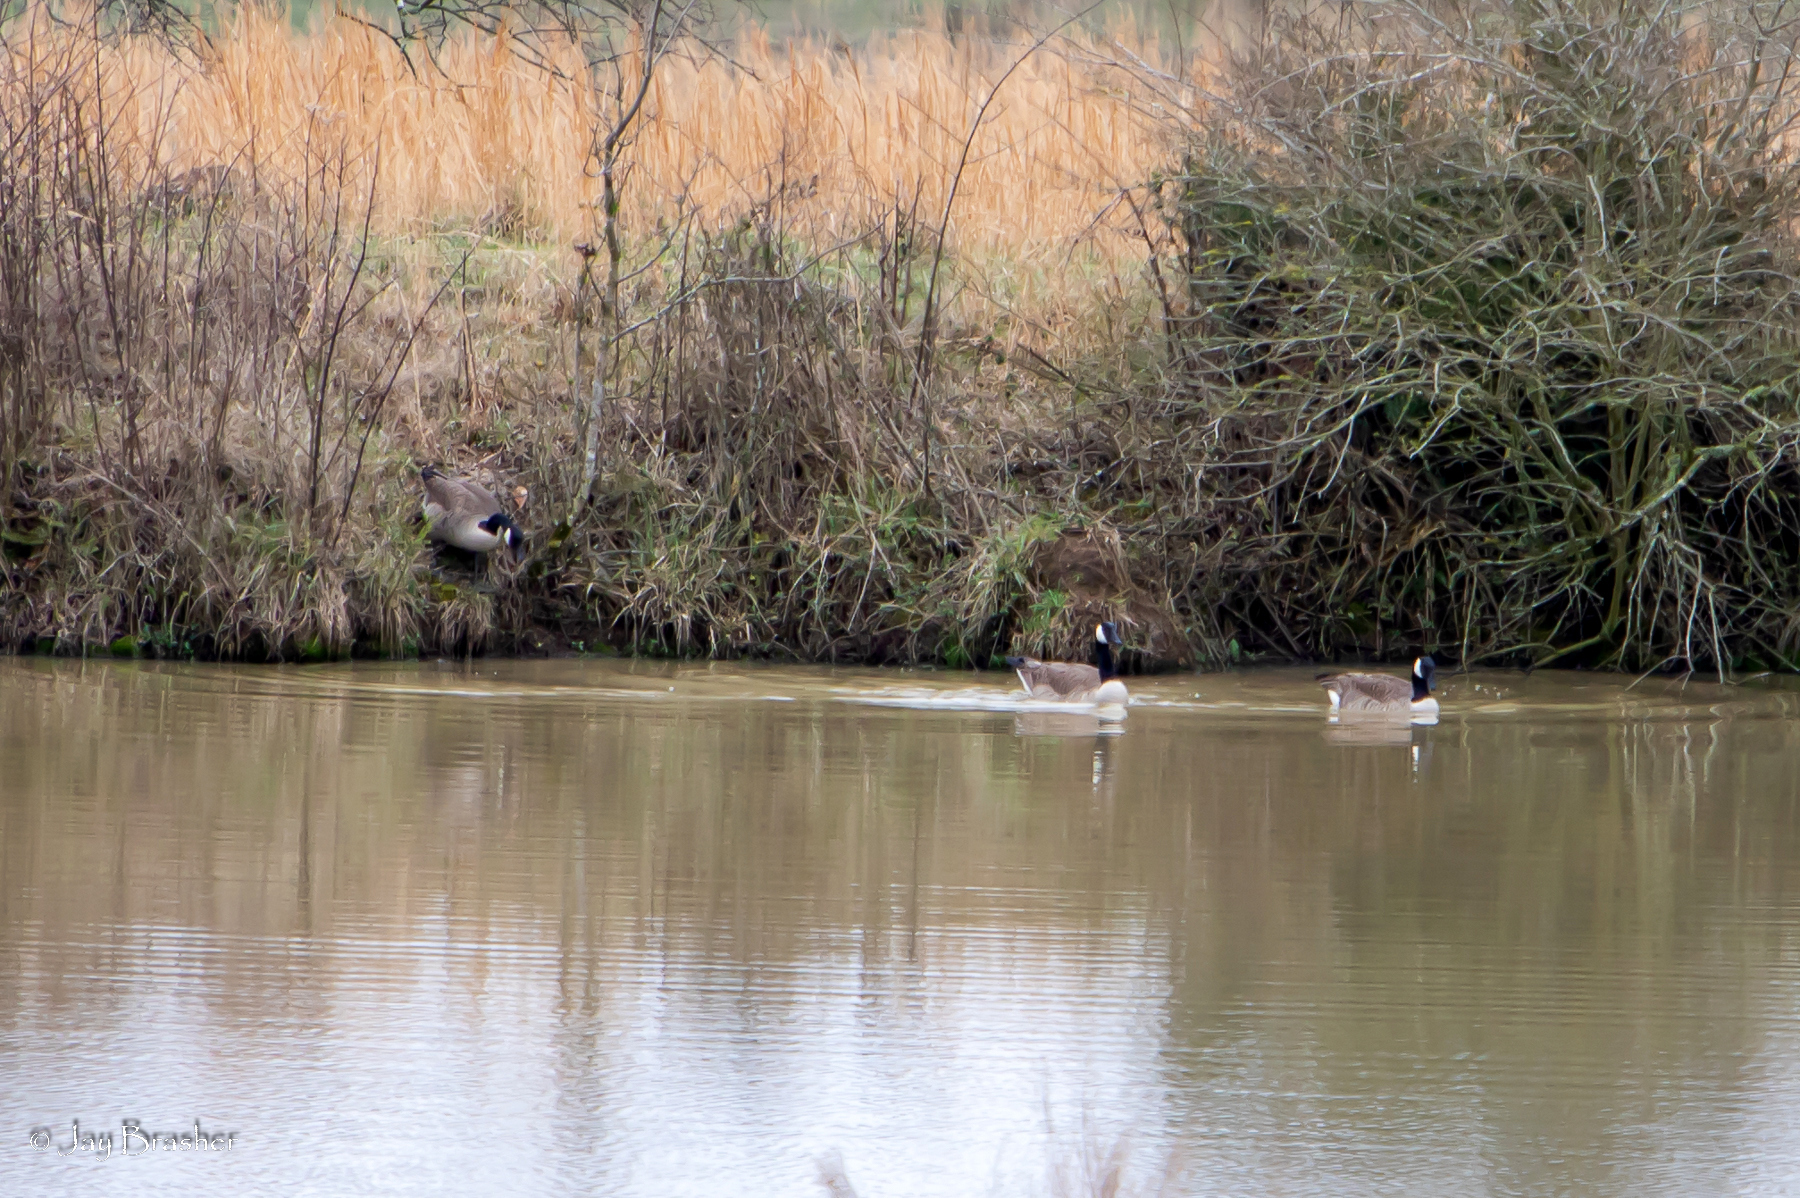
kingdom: Animalia
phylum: Chordata
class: Aves
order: Anseriformes
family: Anatidae
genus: Branta
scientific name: Branta canadensis
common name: Canada goose
